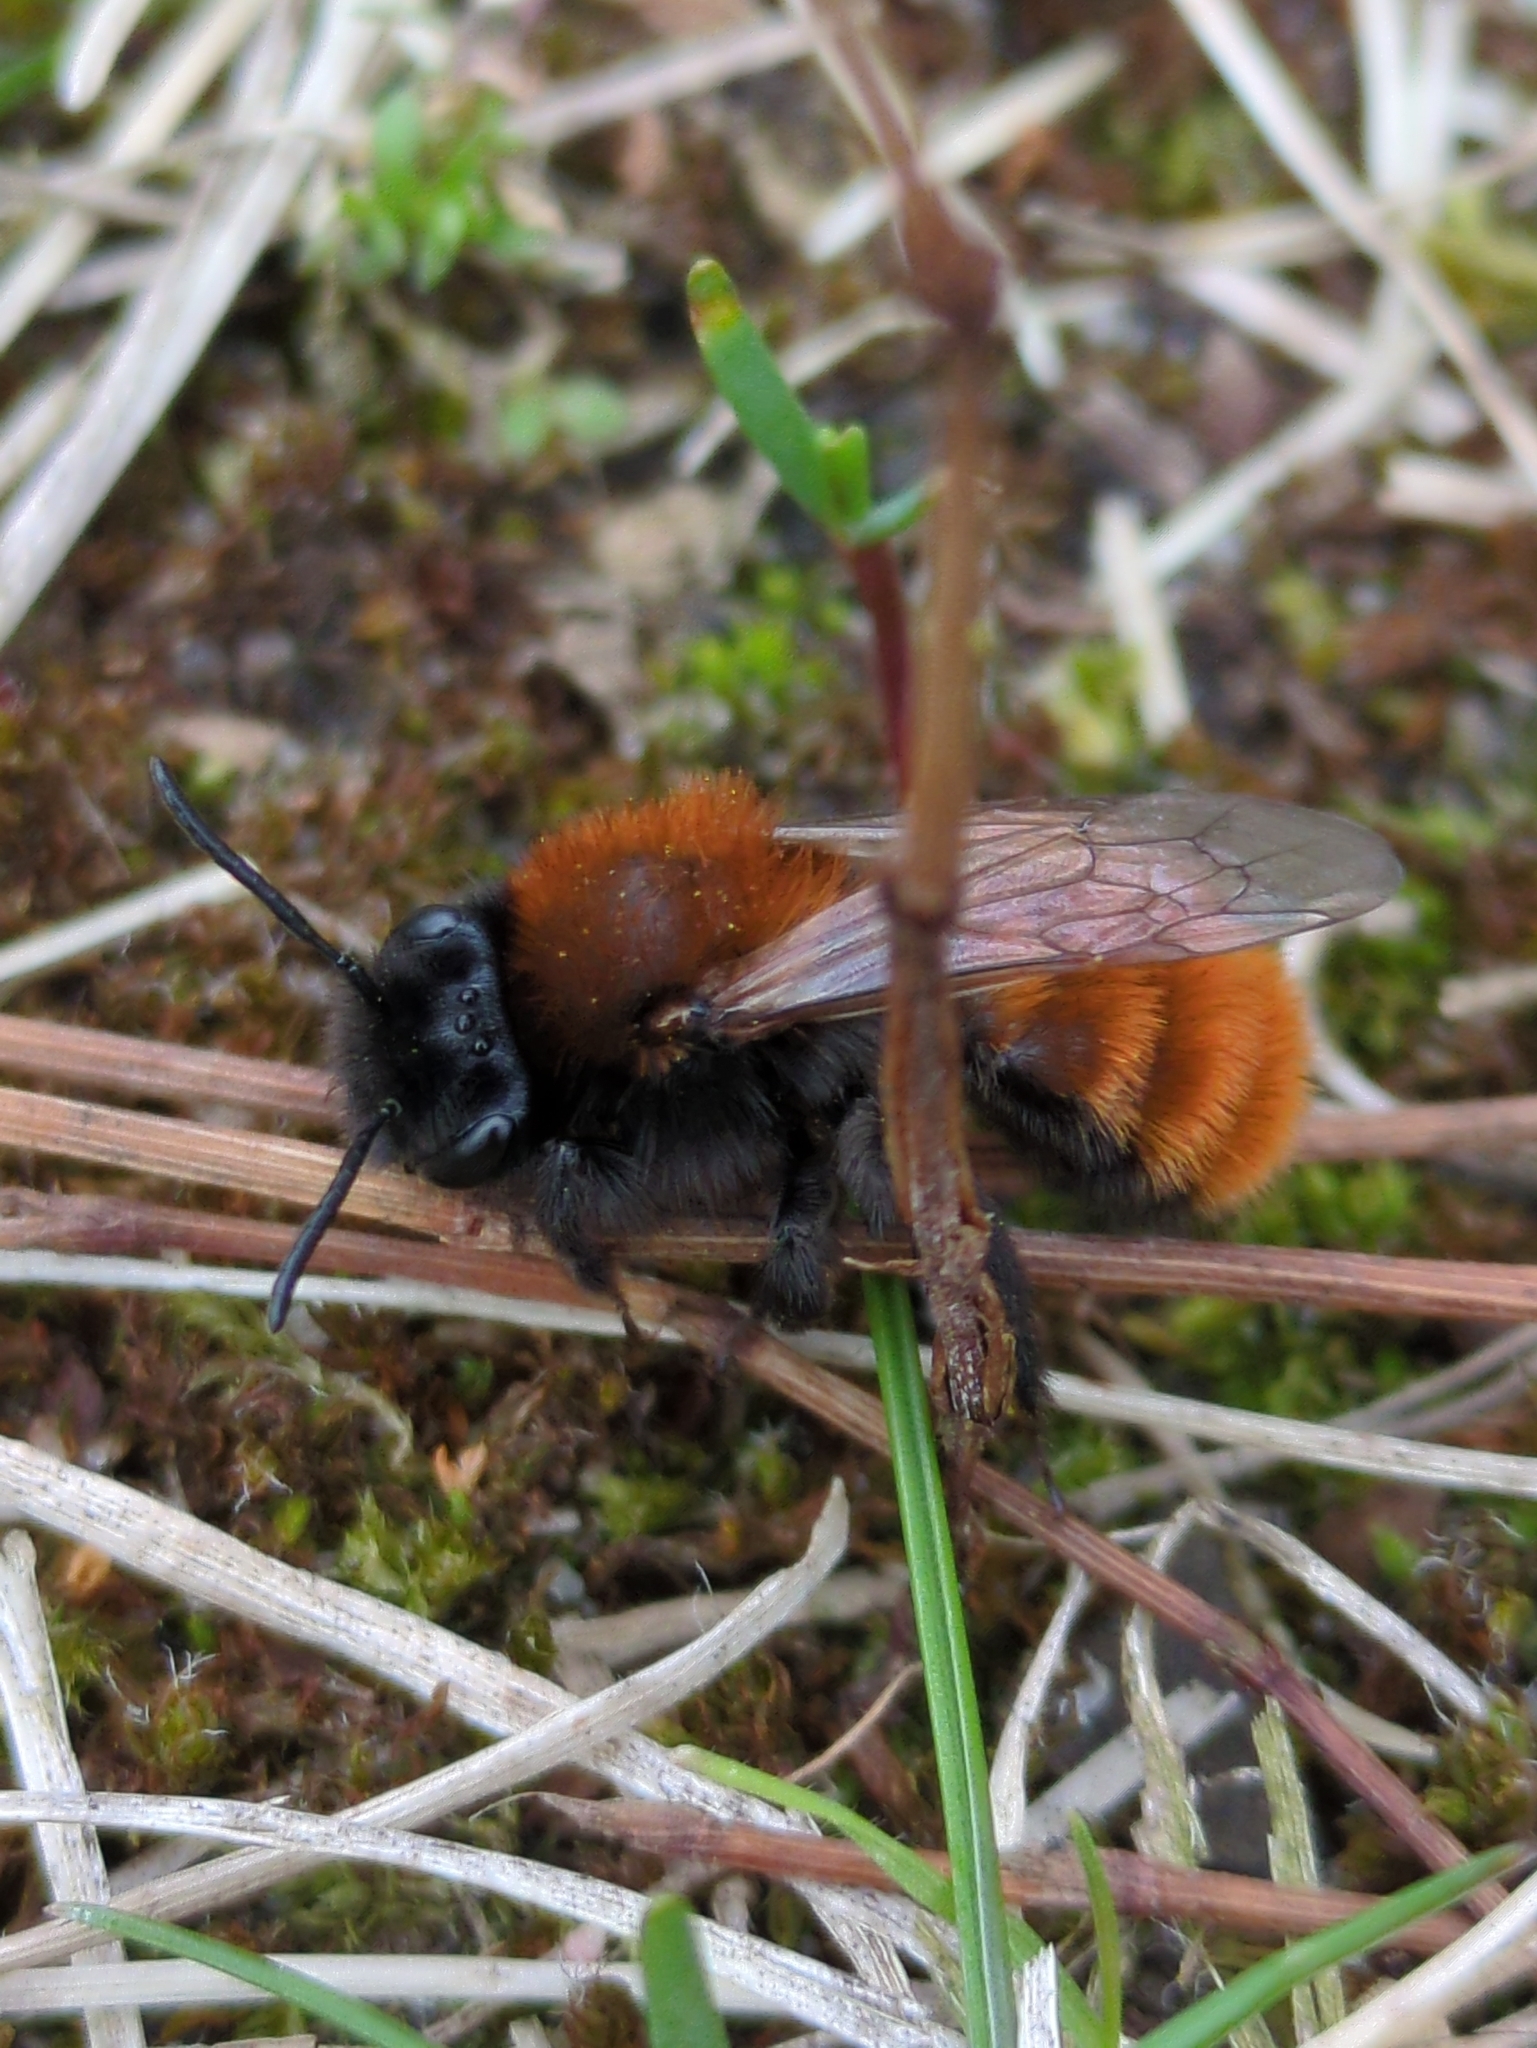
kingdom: Animalia
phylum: Arthropoda
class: Insecta
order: Hymenoptera
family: Andrenidae
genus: Andrena
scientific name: Andrena fulva
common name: Tawny mining bee
